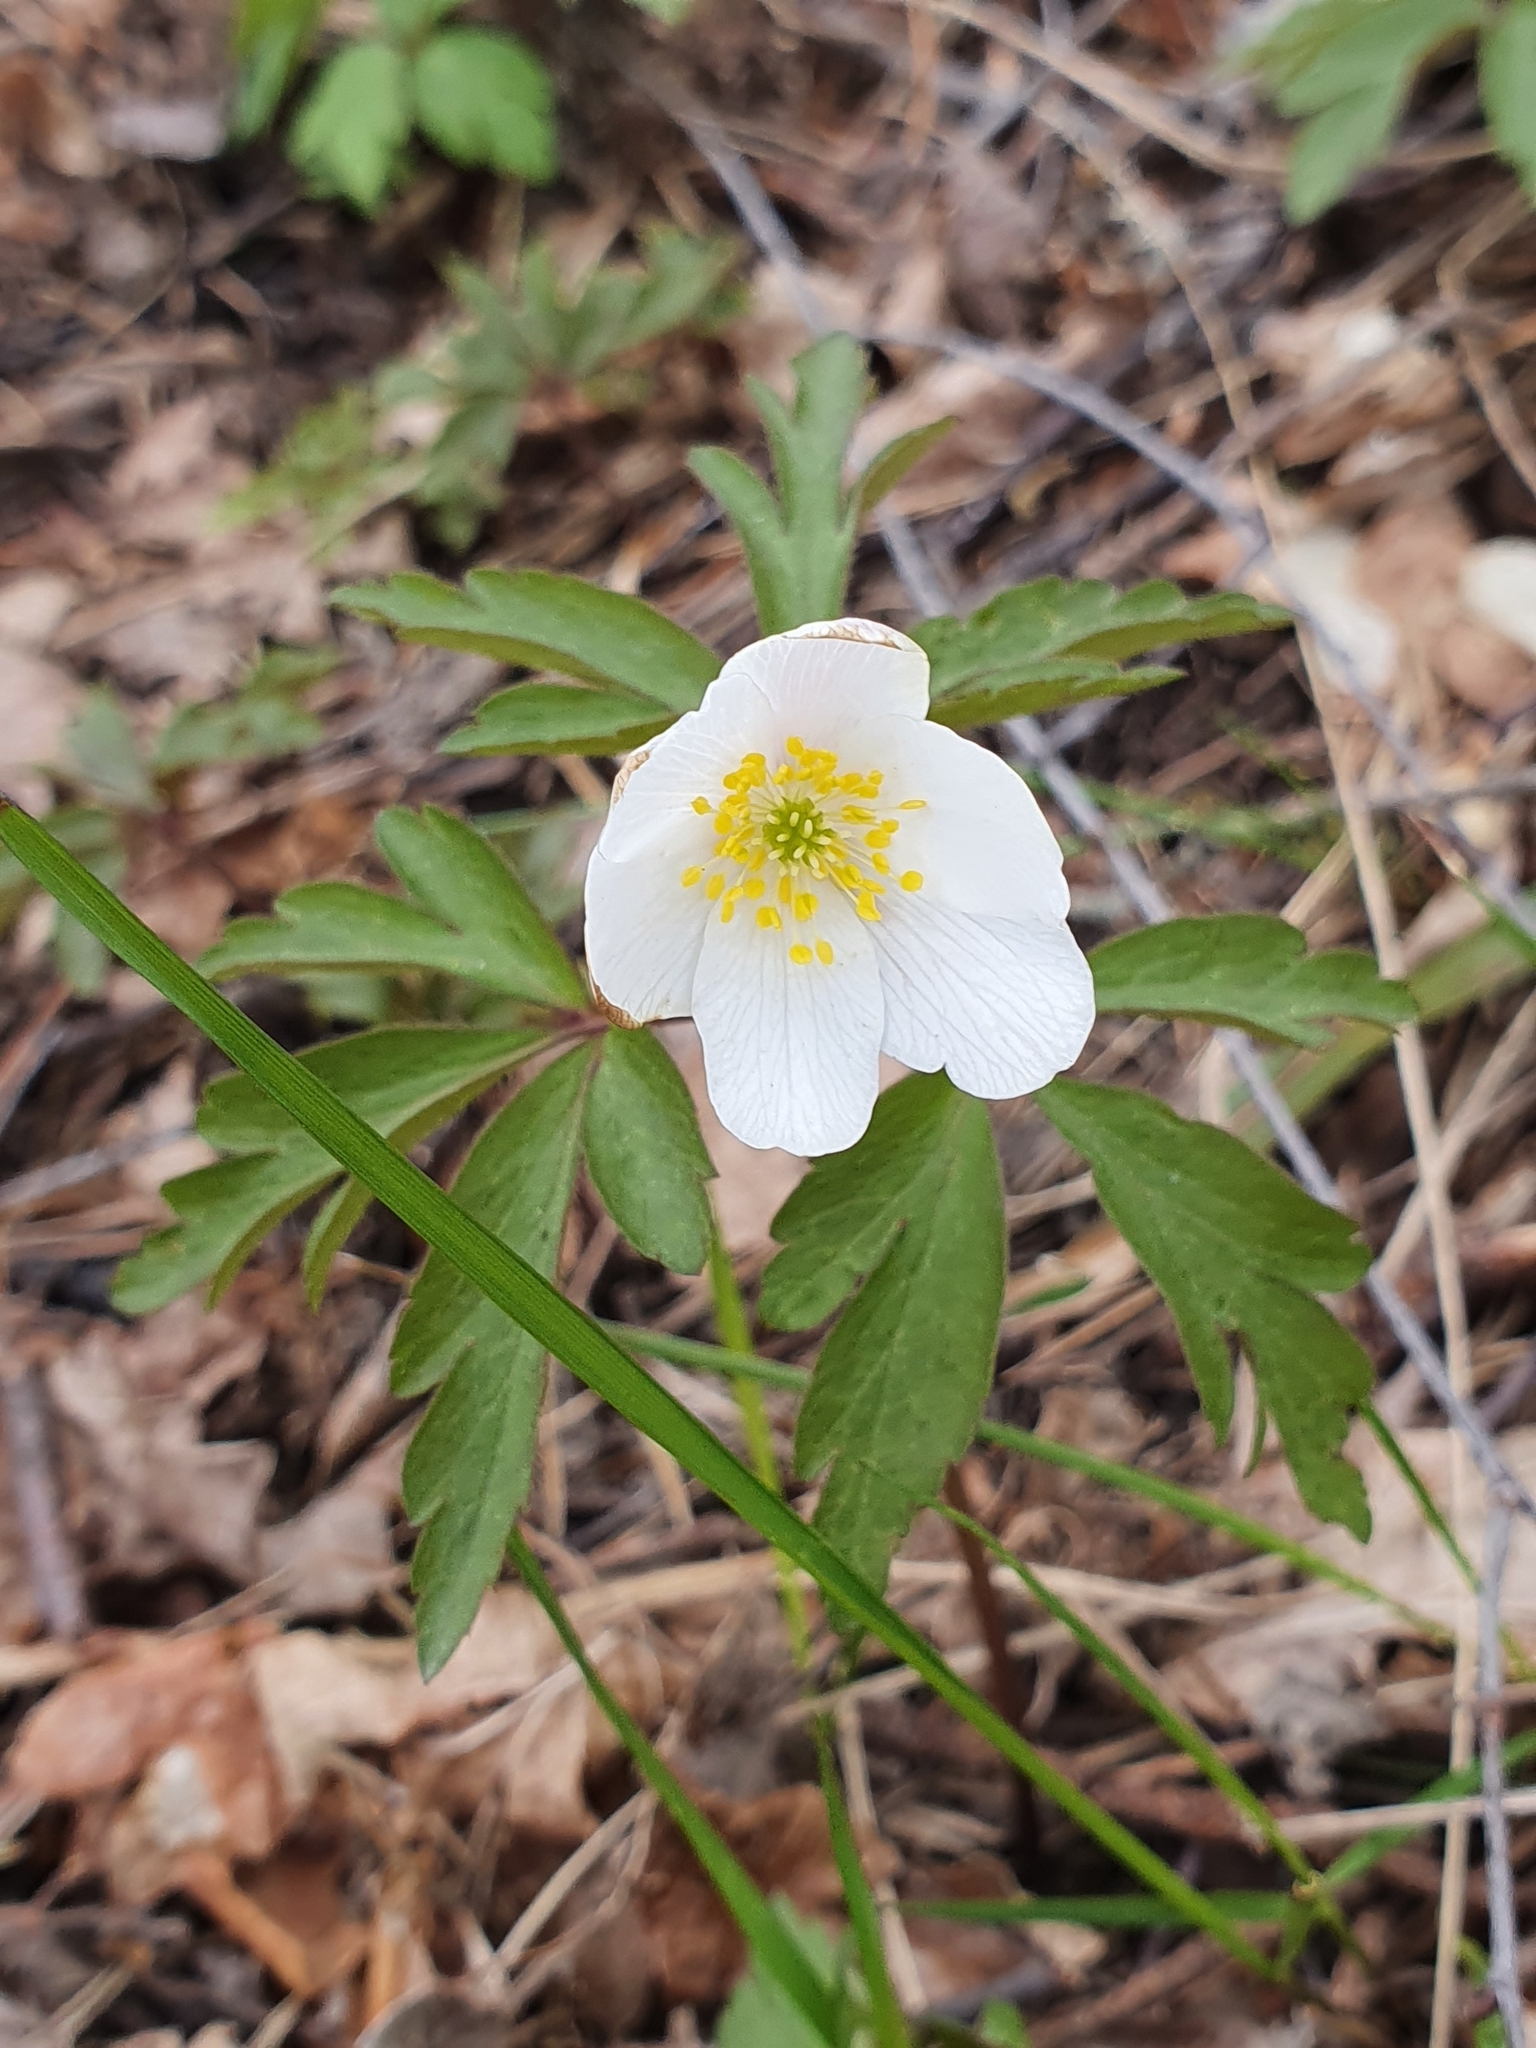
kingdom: Plantae
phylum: Tracheophyta
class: Magnoliopsida
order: Ranunculales
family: Ranunculaceae
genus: Anemone
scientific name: Anemone nemorosa
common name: Wood anemone
